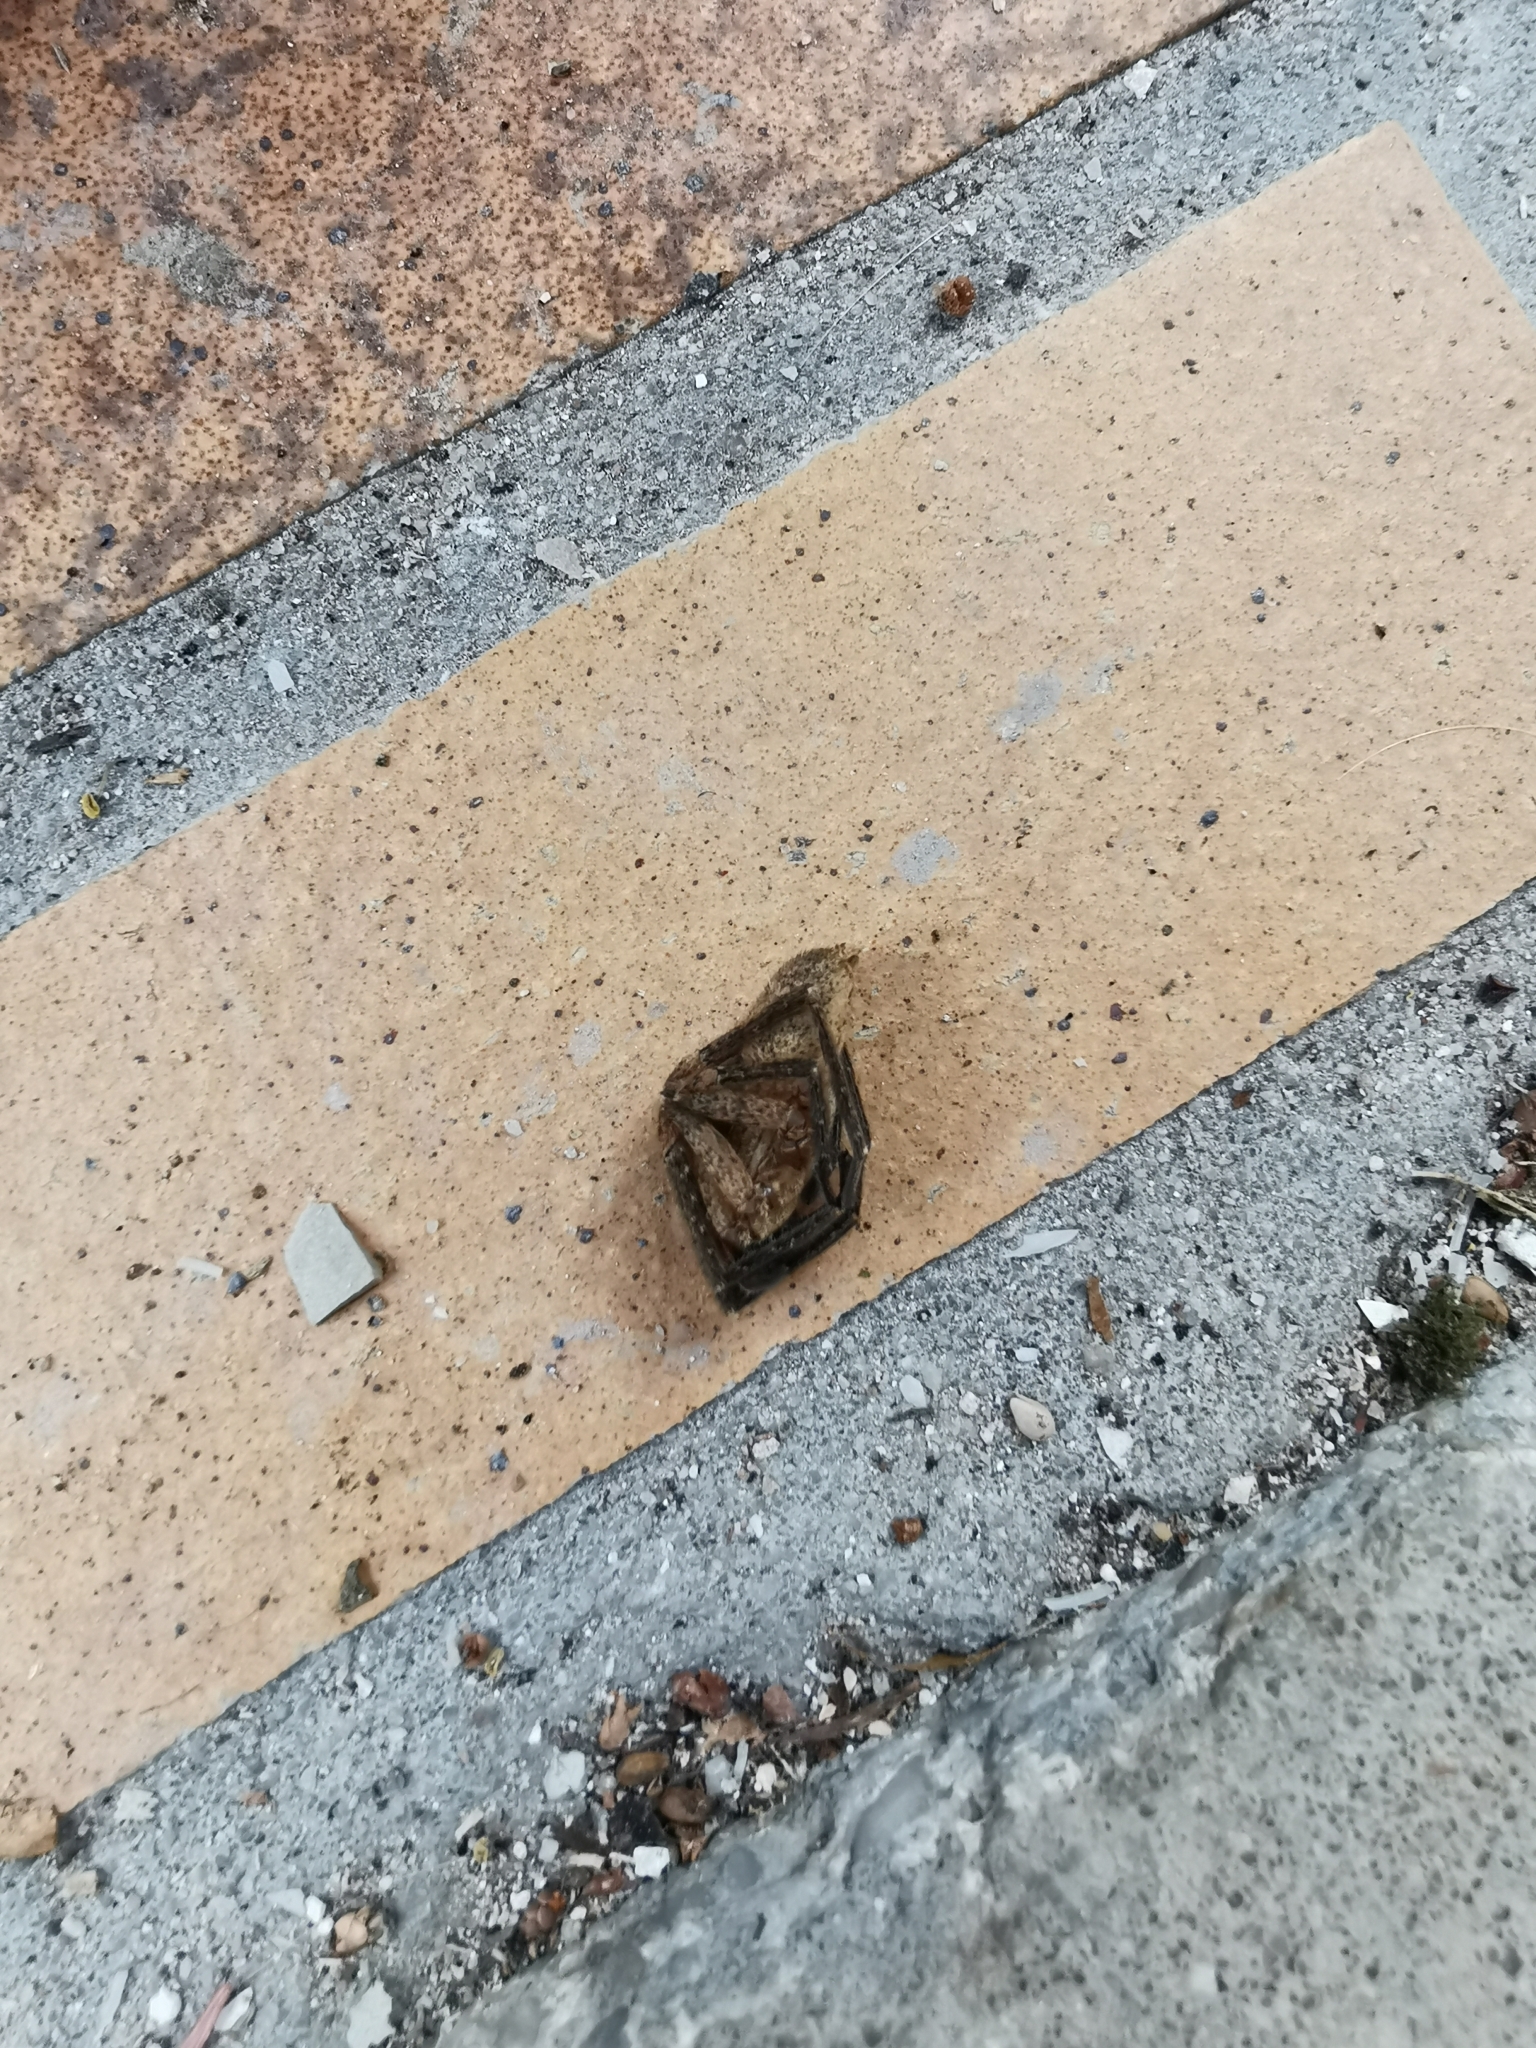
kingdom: Animalia
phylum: Arthropoda
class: Arachnida
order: Araneae
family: Zoropsidae
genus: Zoropsis
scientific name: Zoropsis spinimana
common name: Zoropsid spider
